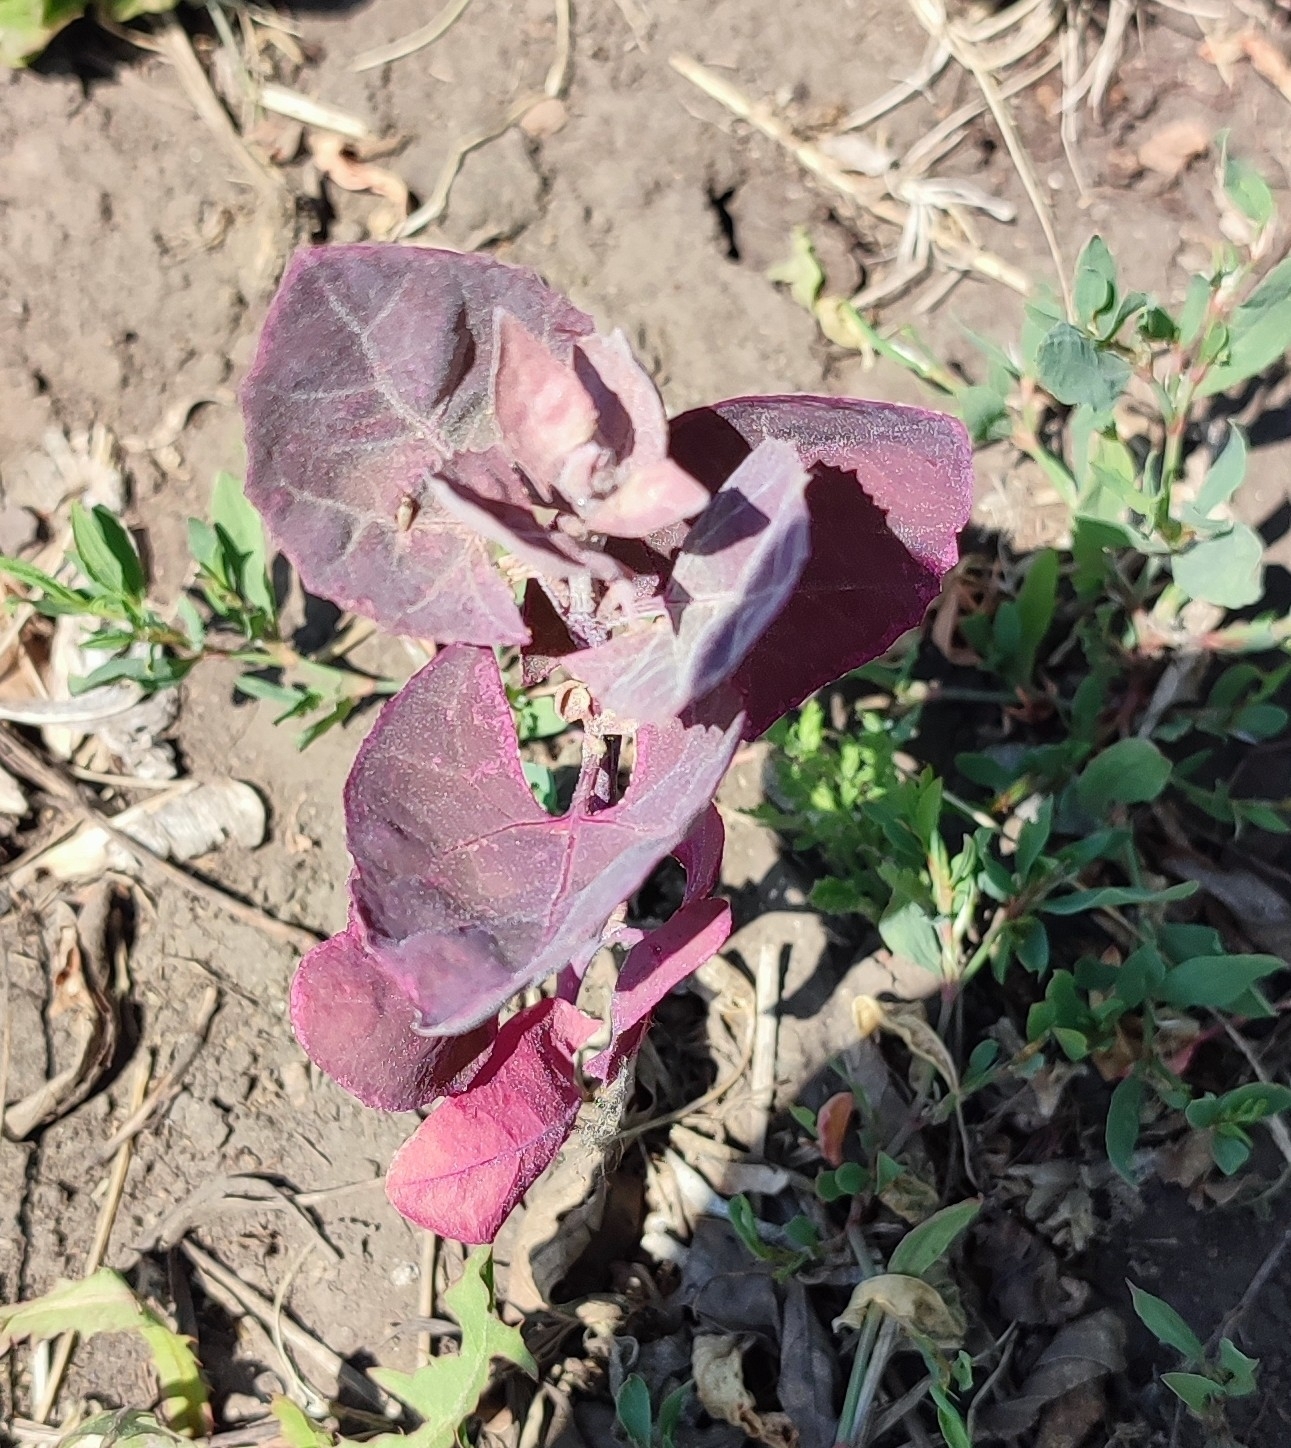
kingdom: Plantae
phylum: Tracheophyta
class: Magnoliopsida
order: Caryophyllales
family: Amaranthaceae
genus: Atriplex
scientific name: Atriplex hortensis
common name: Garden orache
